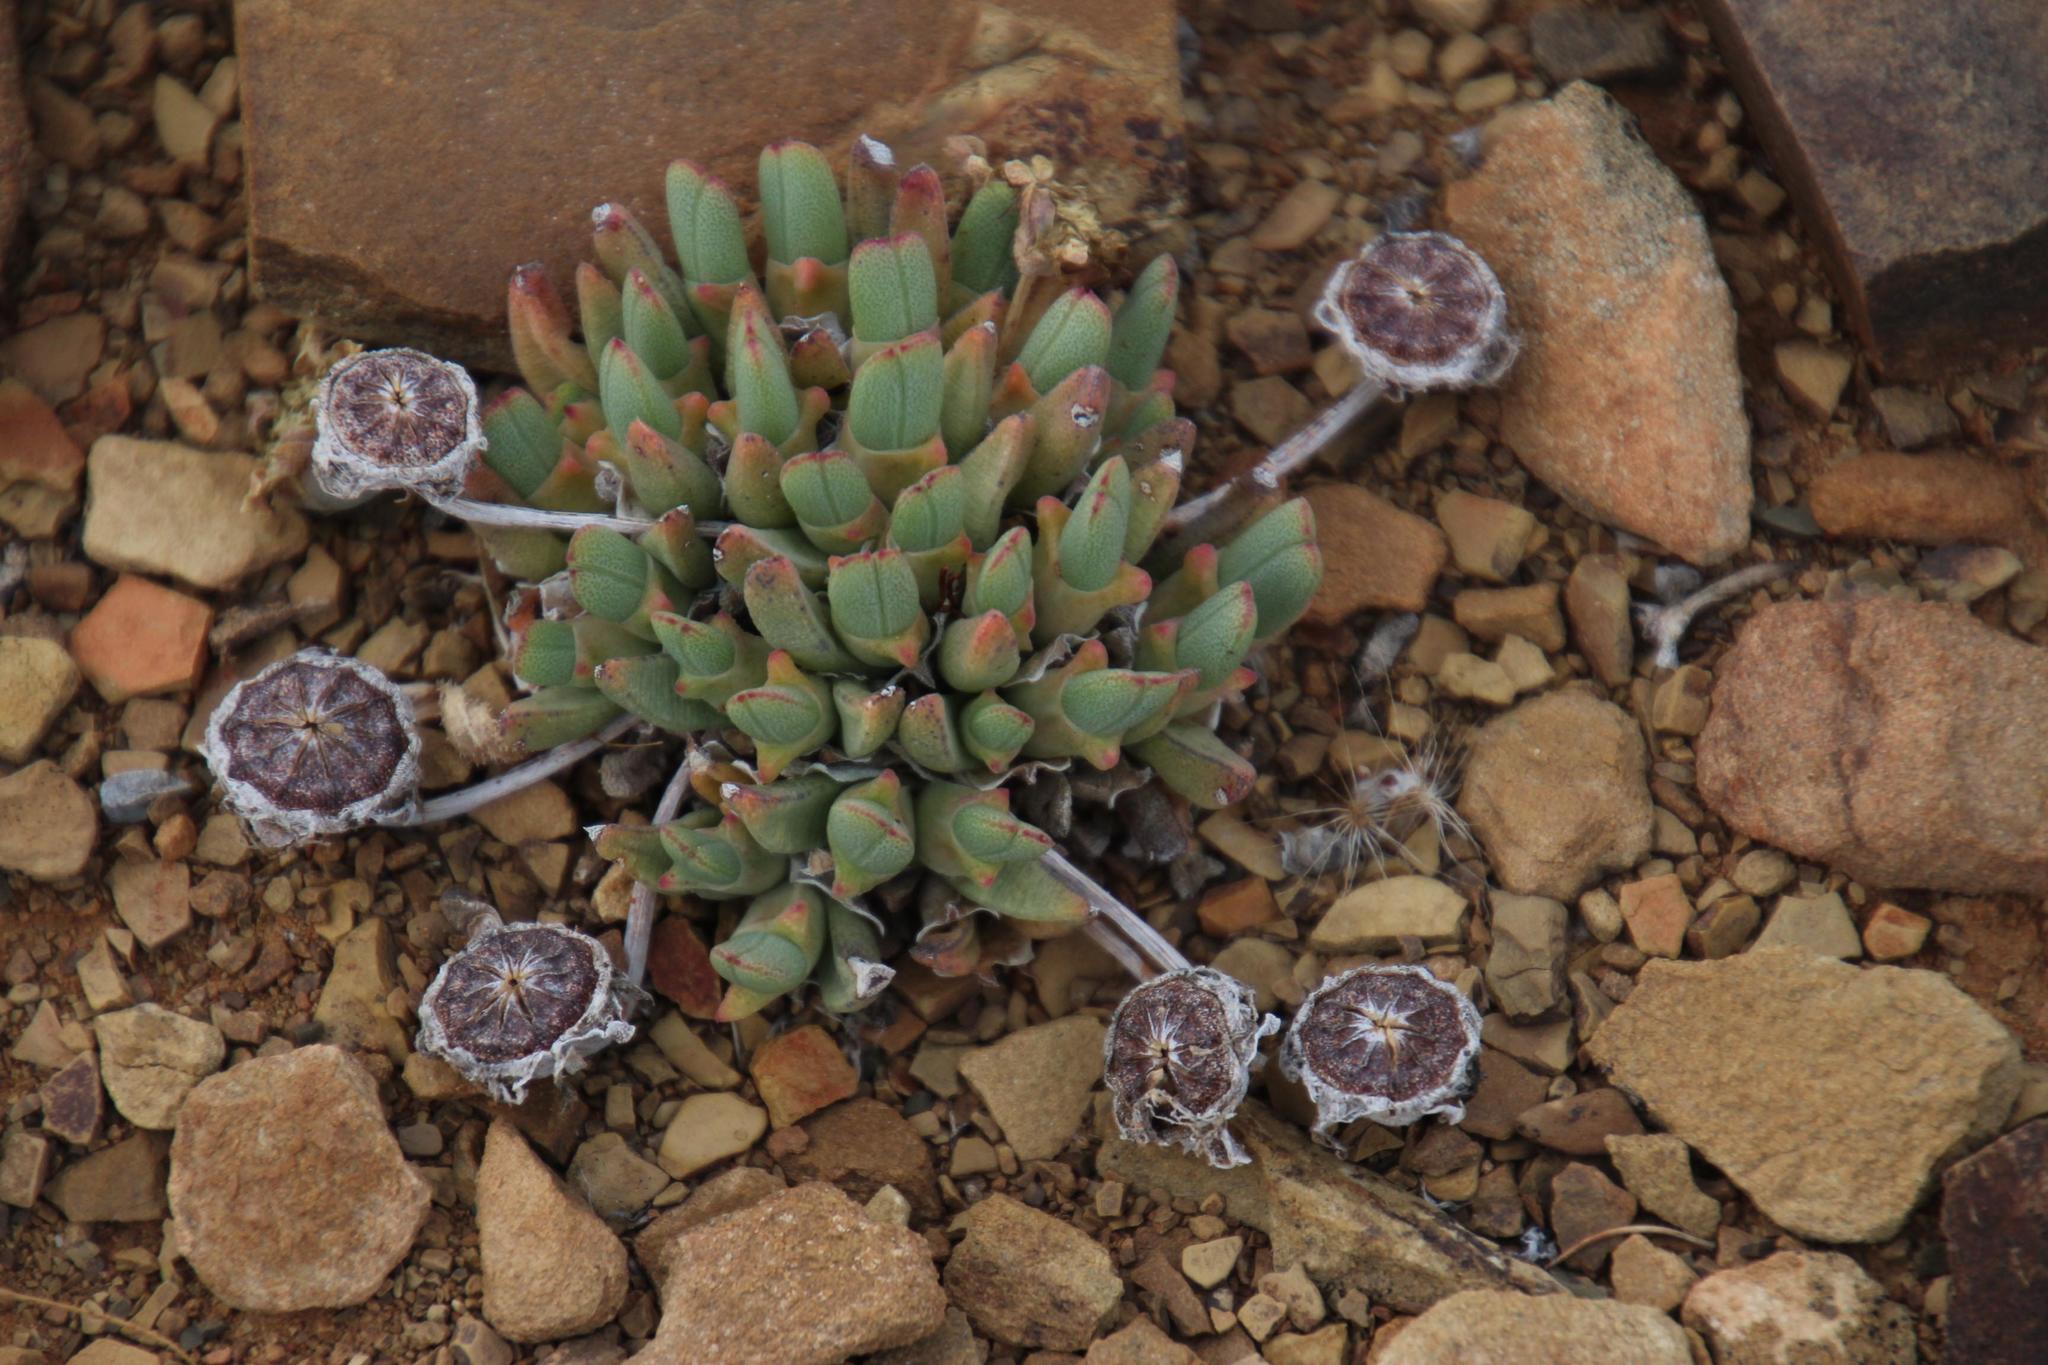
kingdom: Plantae
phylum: Tracheophyta
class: Magnoliopsida
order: Caryophyllales
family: Aizoaceae
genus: Cheiridopsis
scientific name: Cheiridopsis namaquensis
